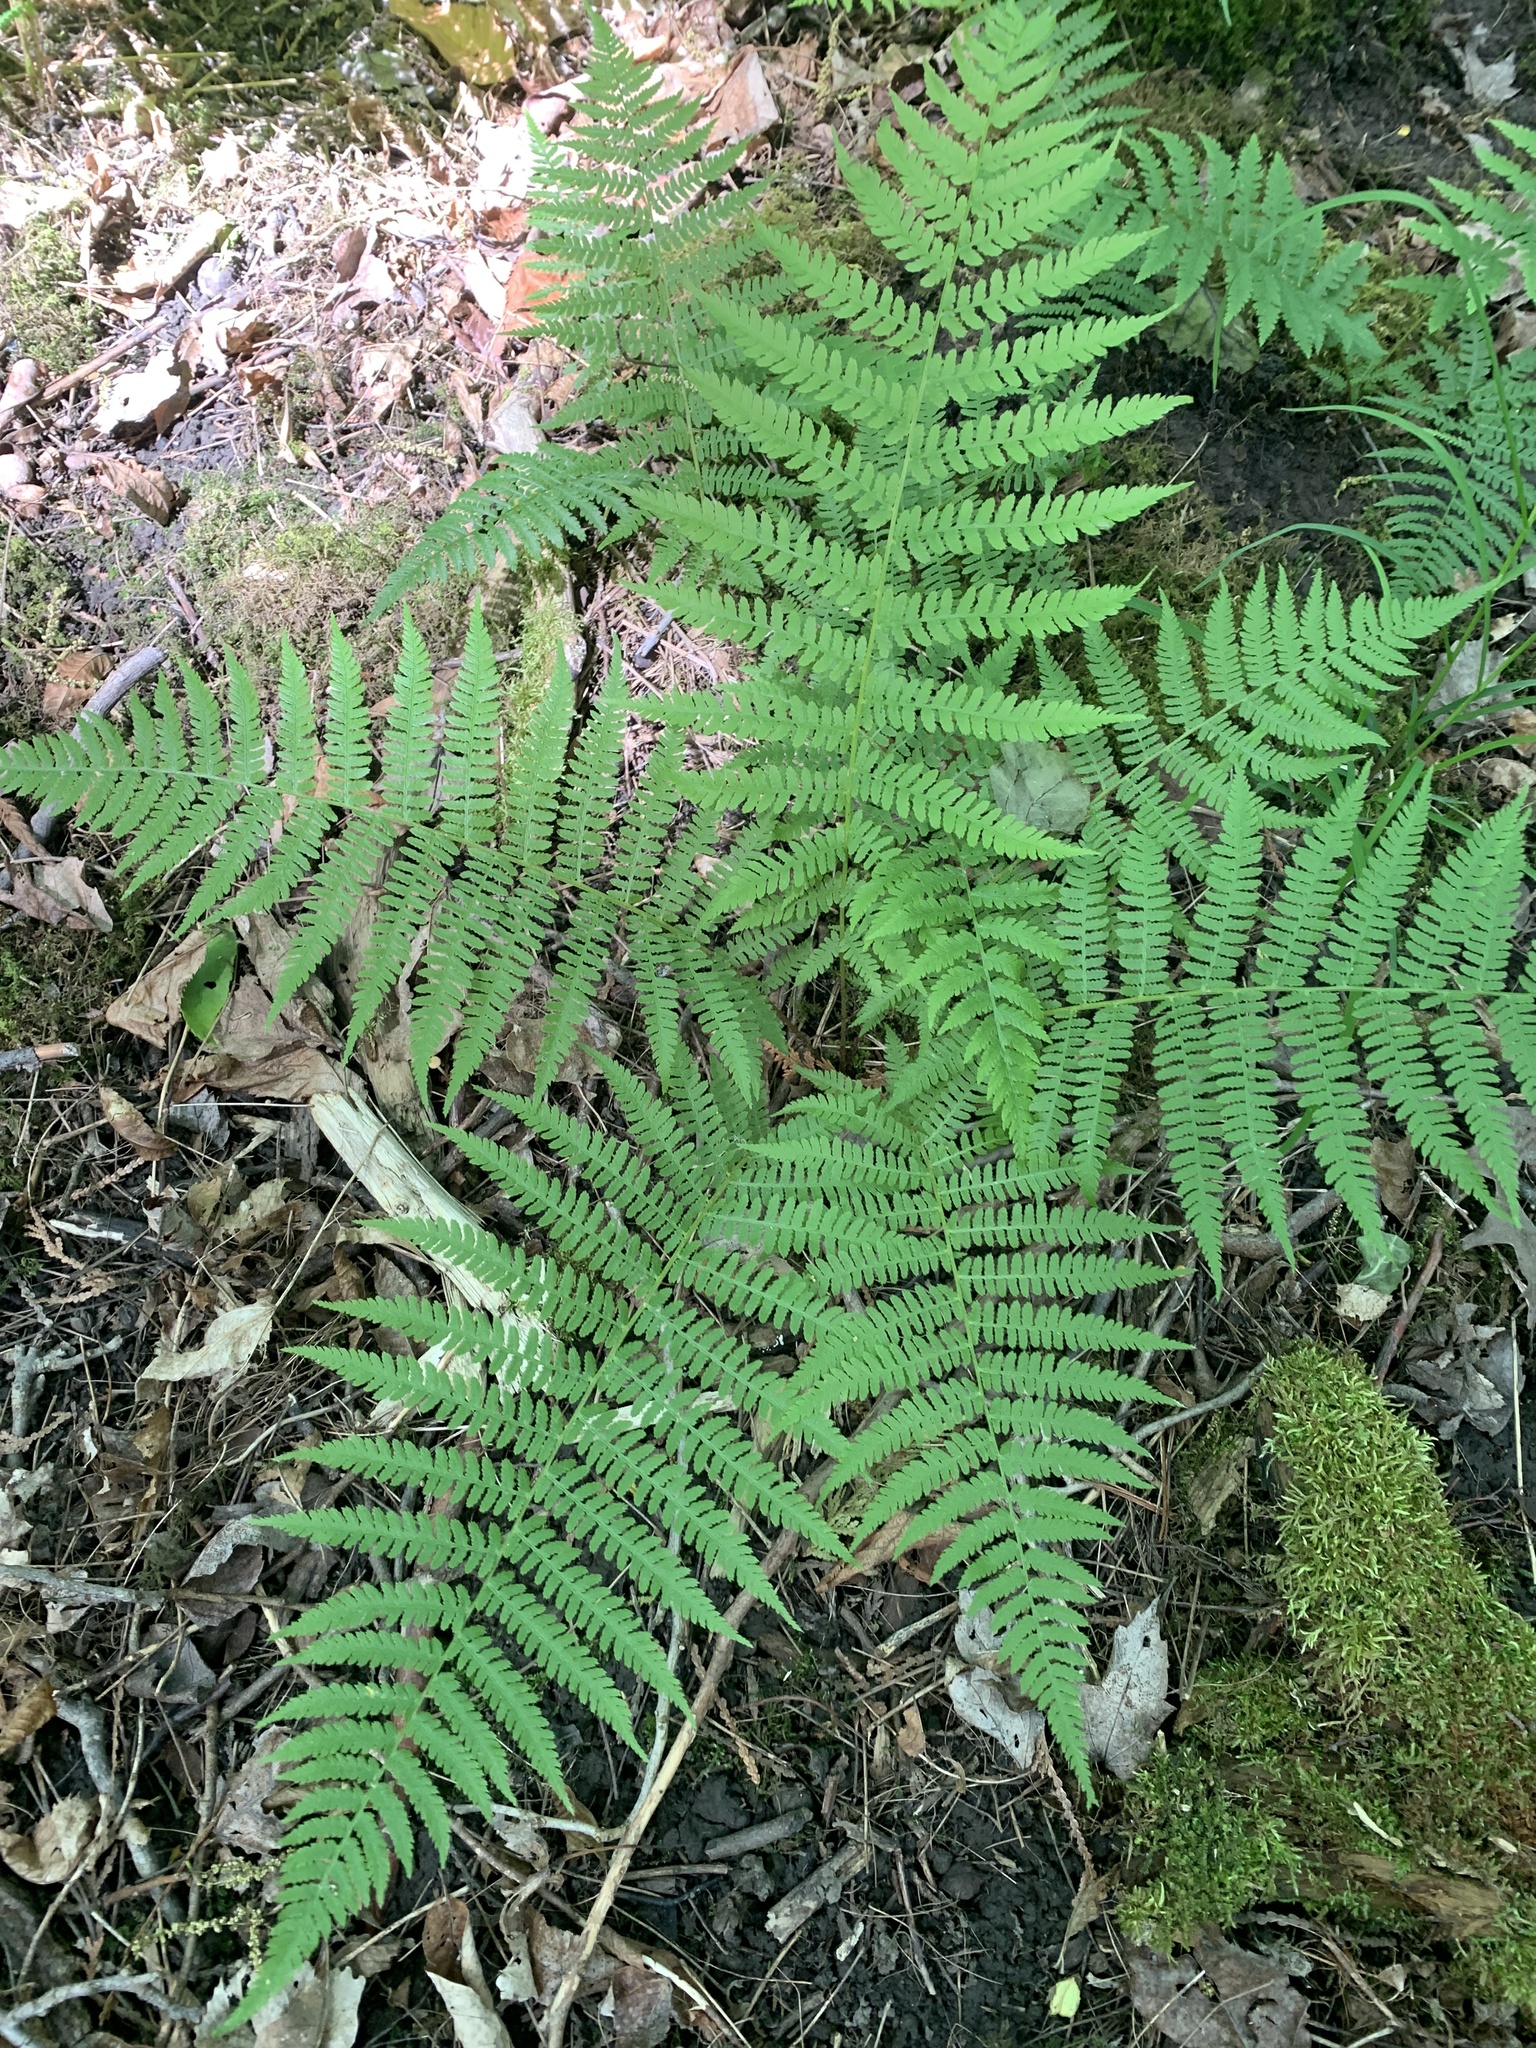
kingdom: Plantae
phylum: Tracheophyta
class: Polypodiopsida
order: Polypodiales
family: Athyriaceae
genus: Athyrium
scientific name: Athyrium angustum
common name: Northern lady fern
